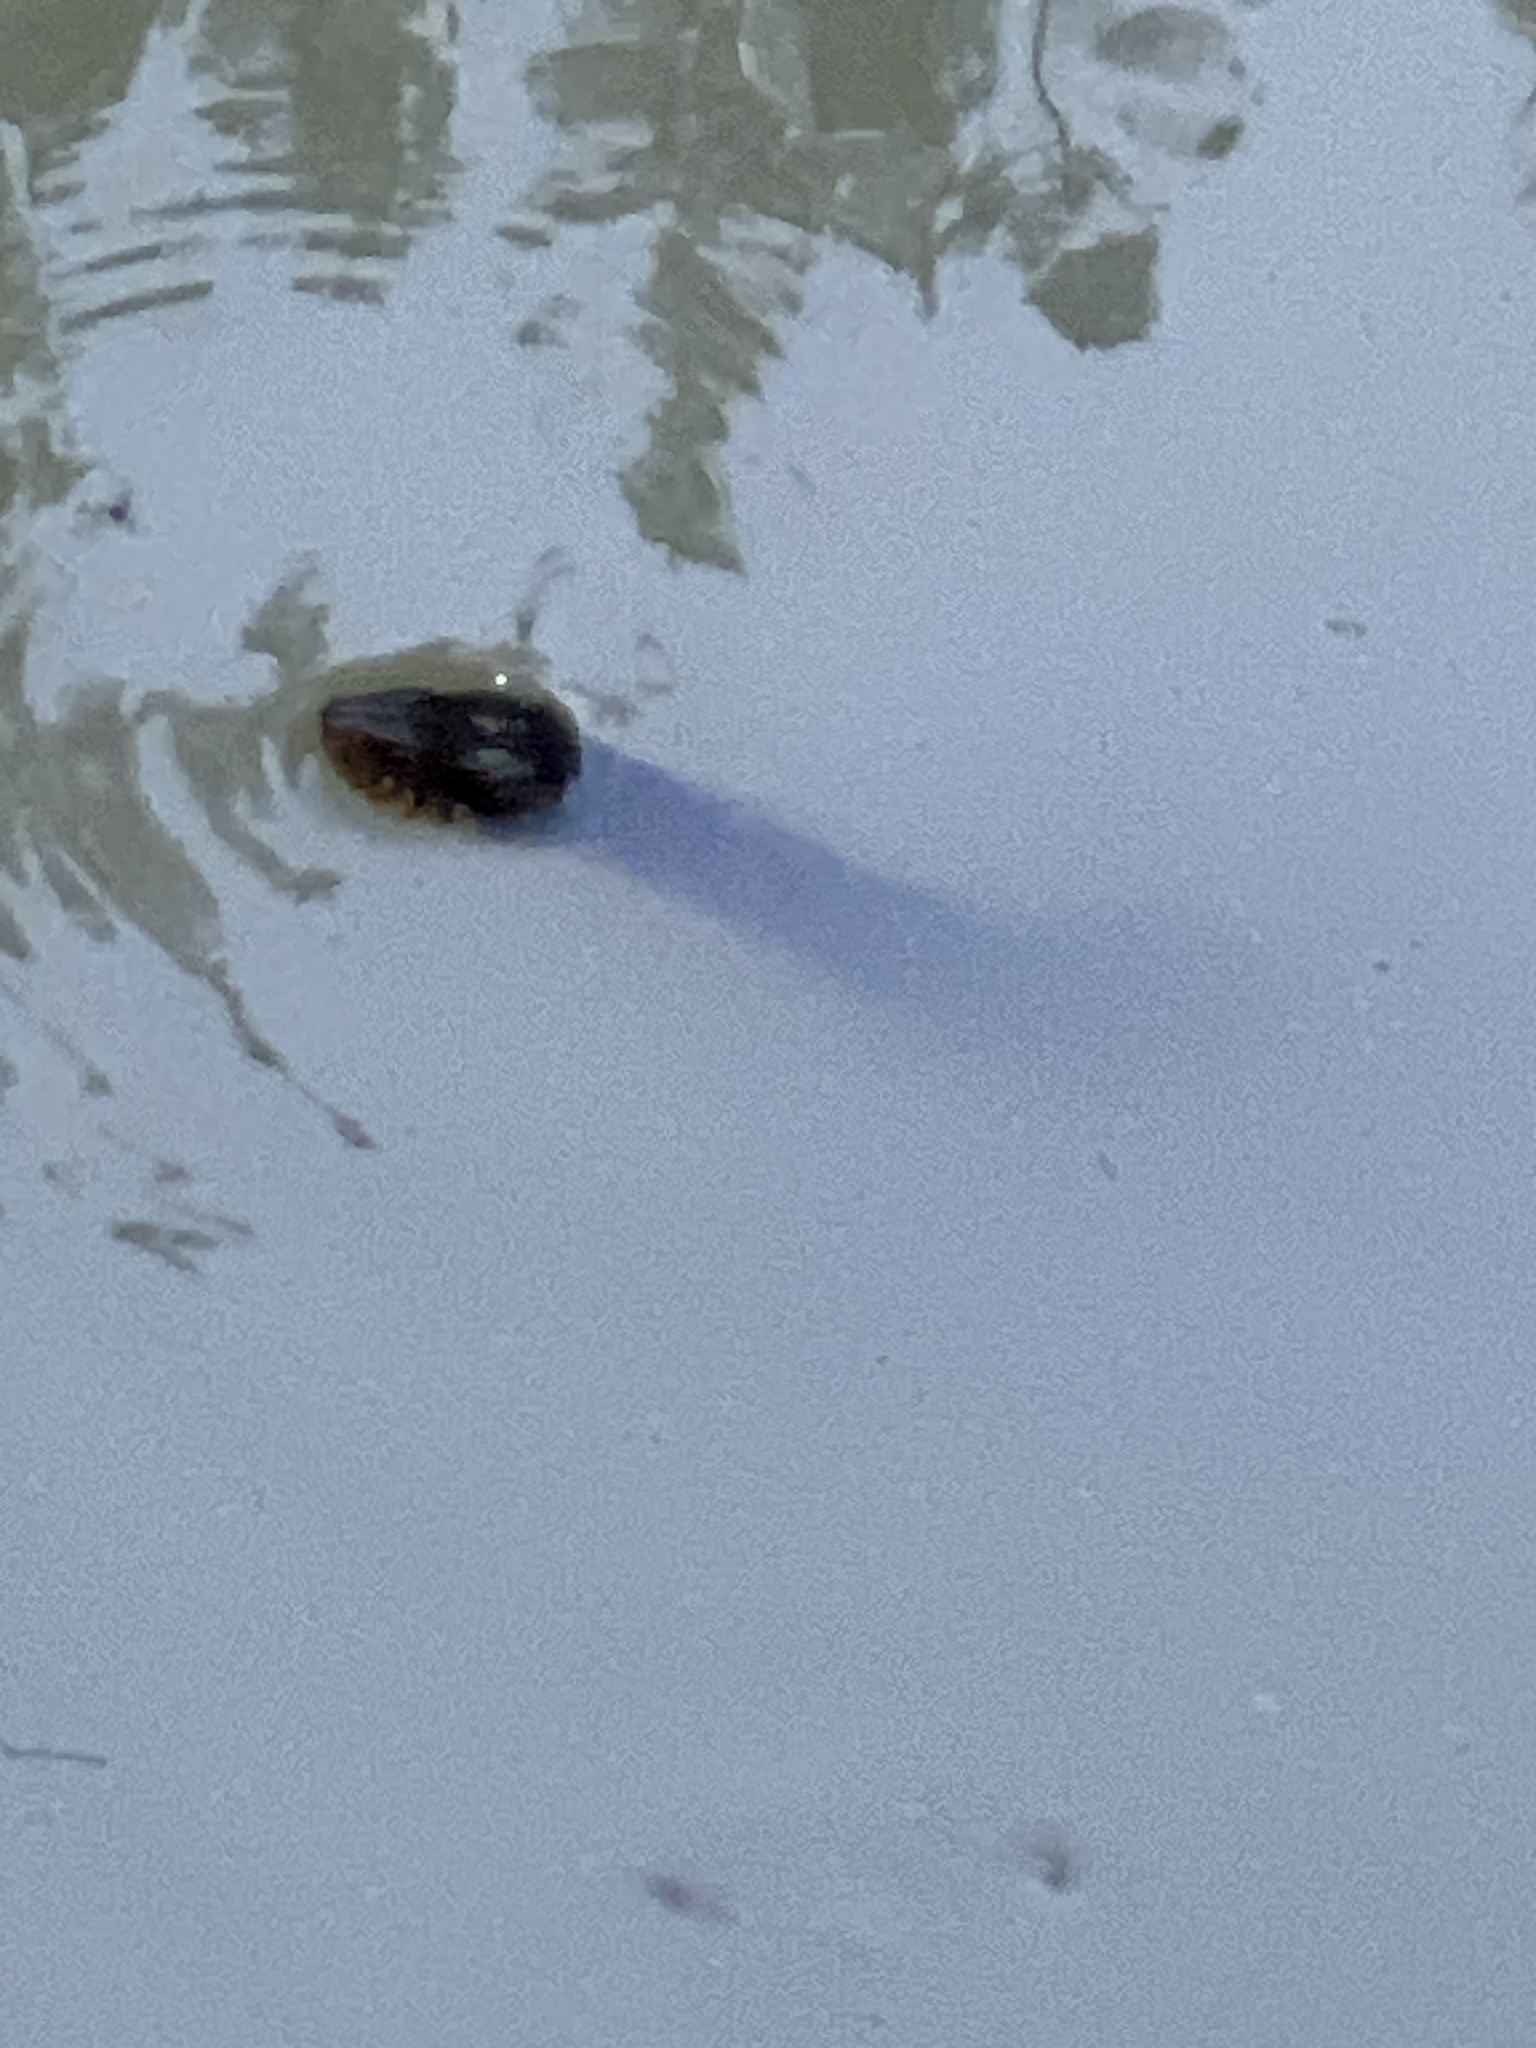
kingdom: Animalia
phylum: Chordata
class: Squamata
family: Colubridae
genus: Nerodia
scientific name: Nerodia erythrogaster
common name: Plainbelly water snake
